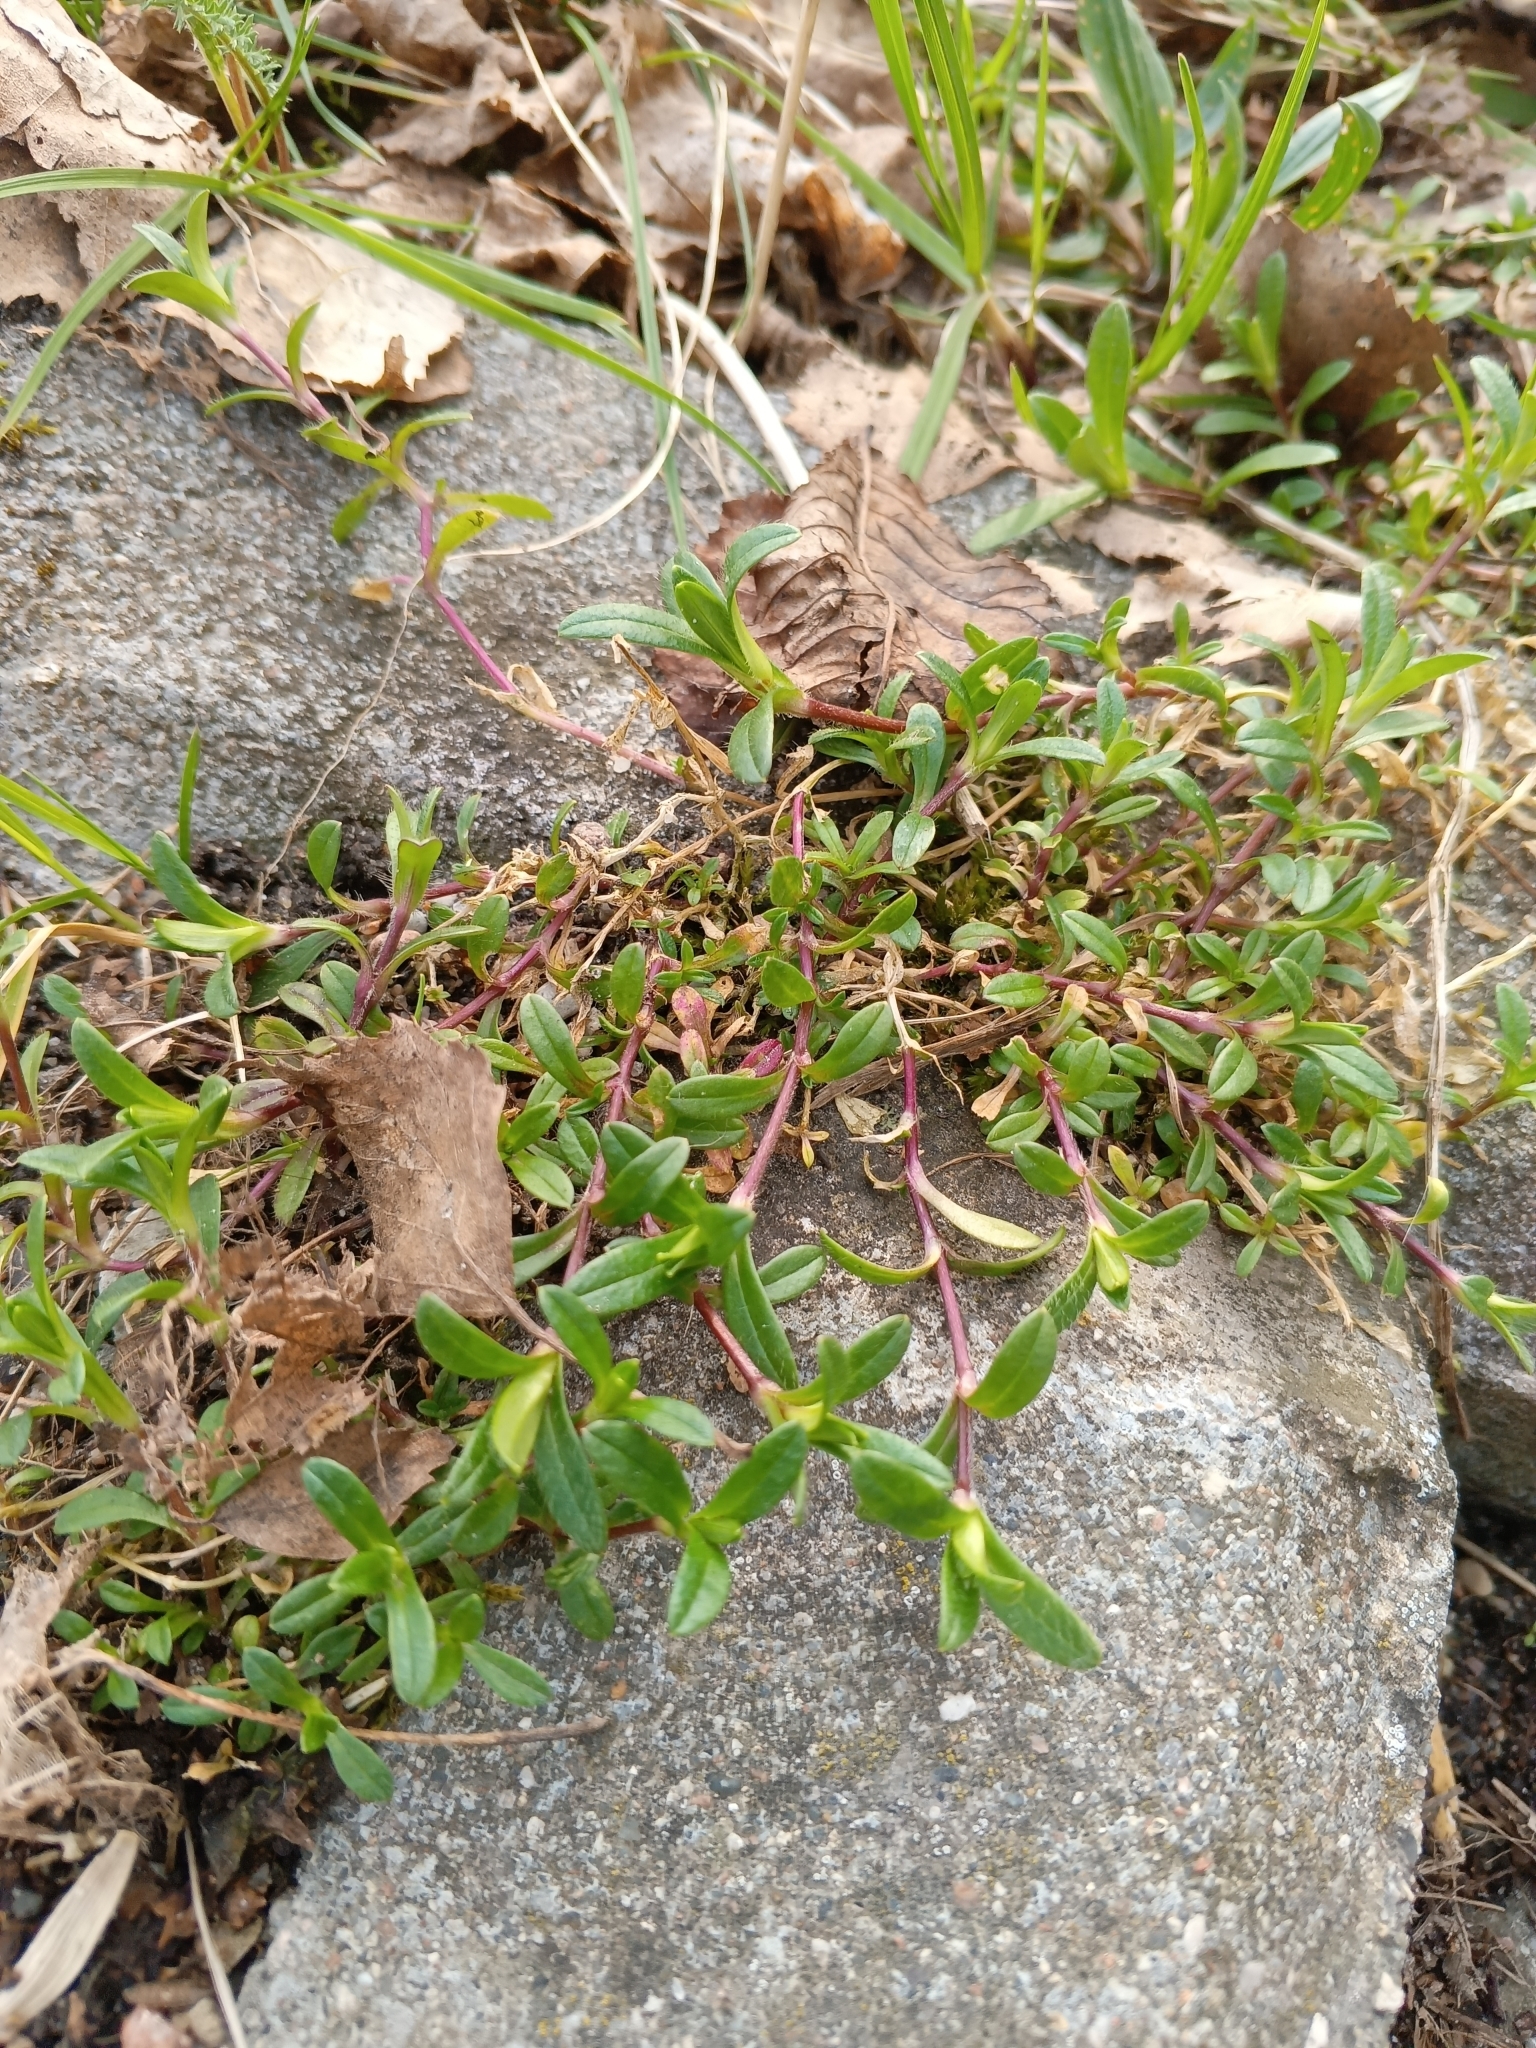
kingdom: Plantae
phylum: Tracheophyta
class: Magnoliopsida
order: Caryophyllales
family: Caryophyllaceae
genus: Cerastium
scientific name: Cerastium holosteoides
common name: Big chickweed
